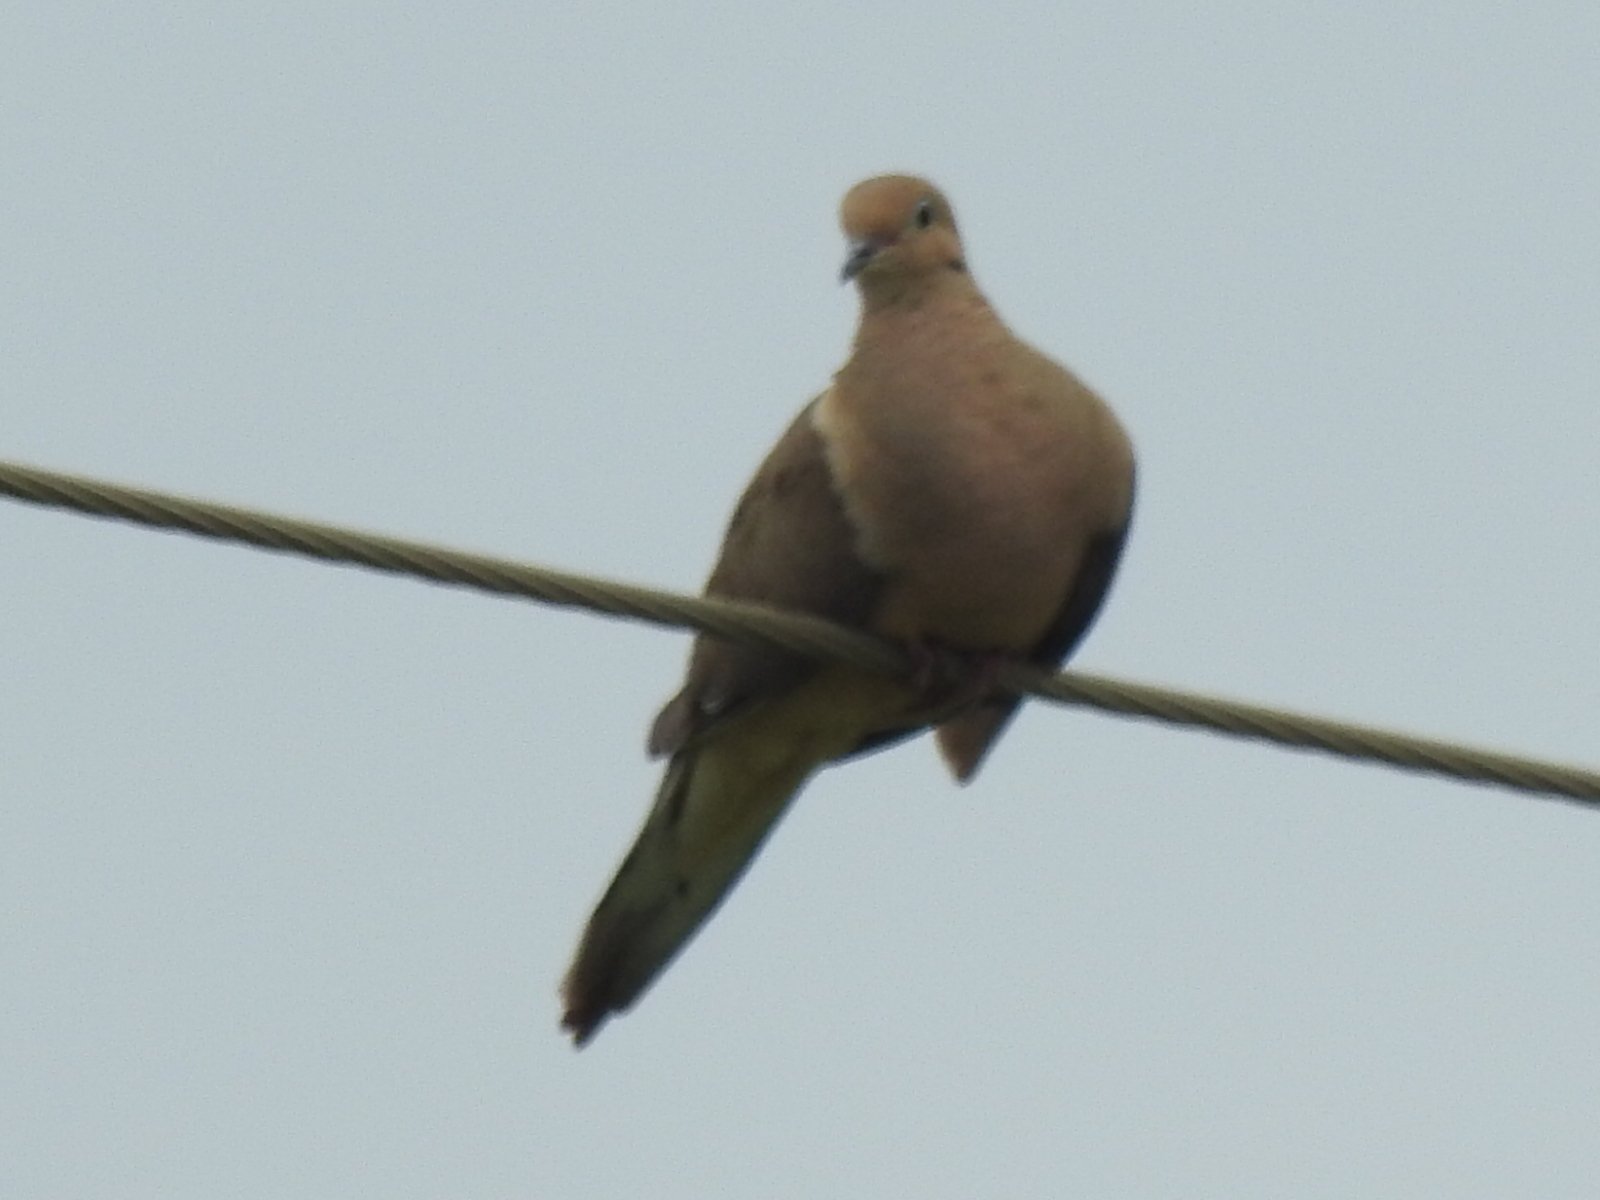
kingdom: Animalia
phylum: Chordata
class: Aves
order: Columbiformes
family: Columbidae
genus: Zenaida
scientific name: Zenaida macroura
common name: Mourning dove
